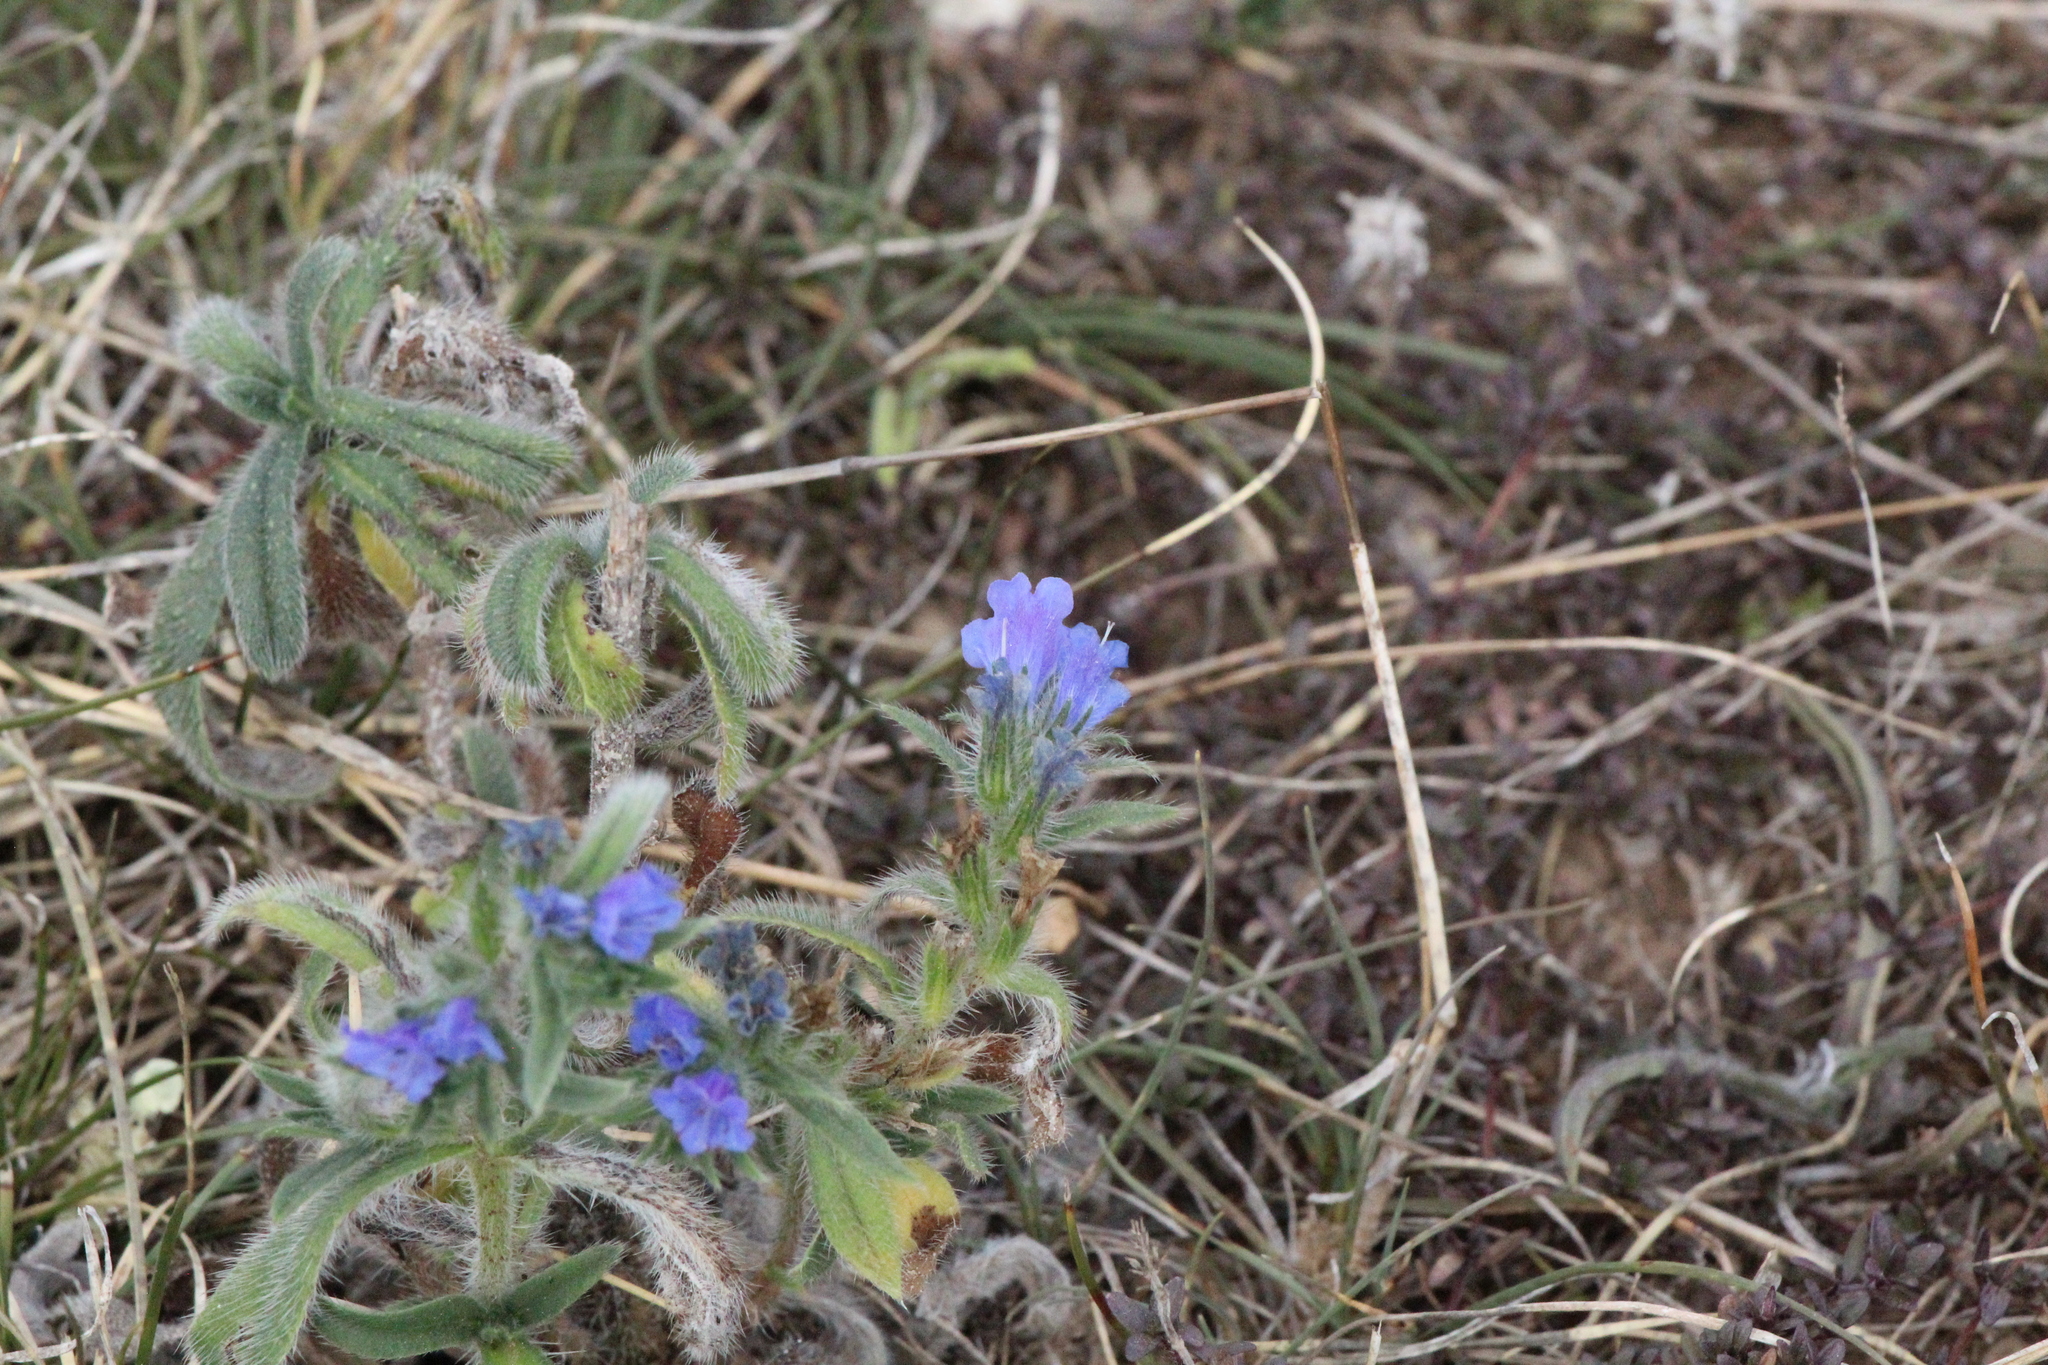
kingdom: Plantae
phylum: Tracheophyta
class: Magnoliopsida
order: Boraginales
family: Boraginaceae
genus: Echium
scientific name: Echium vulgare
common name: Common viper's bugloss
